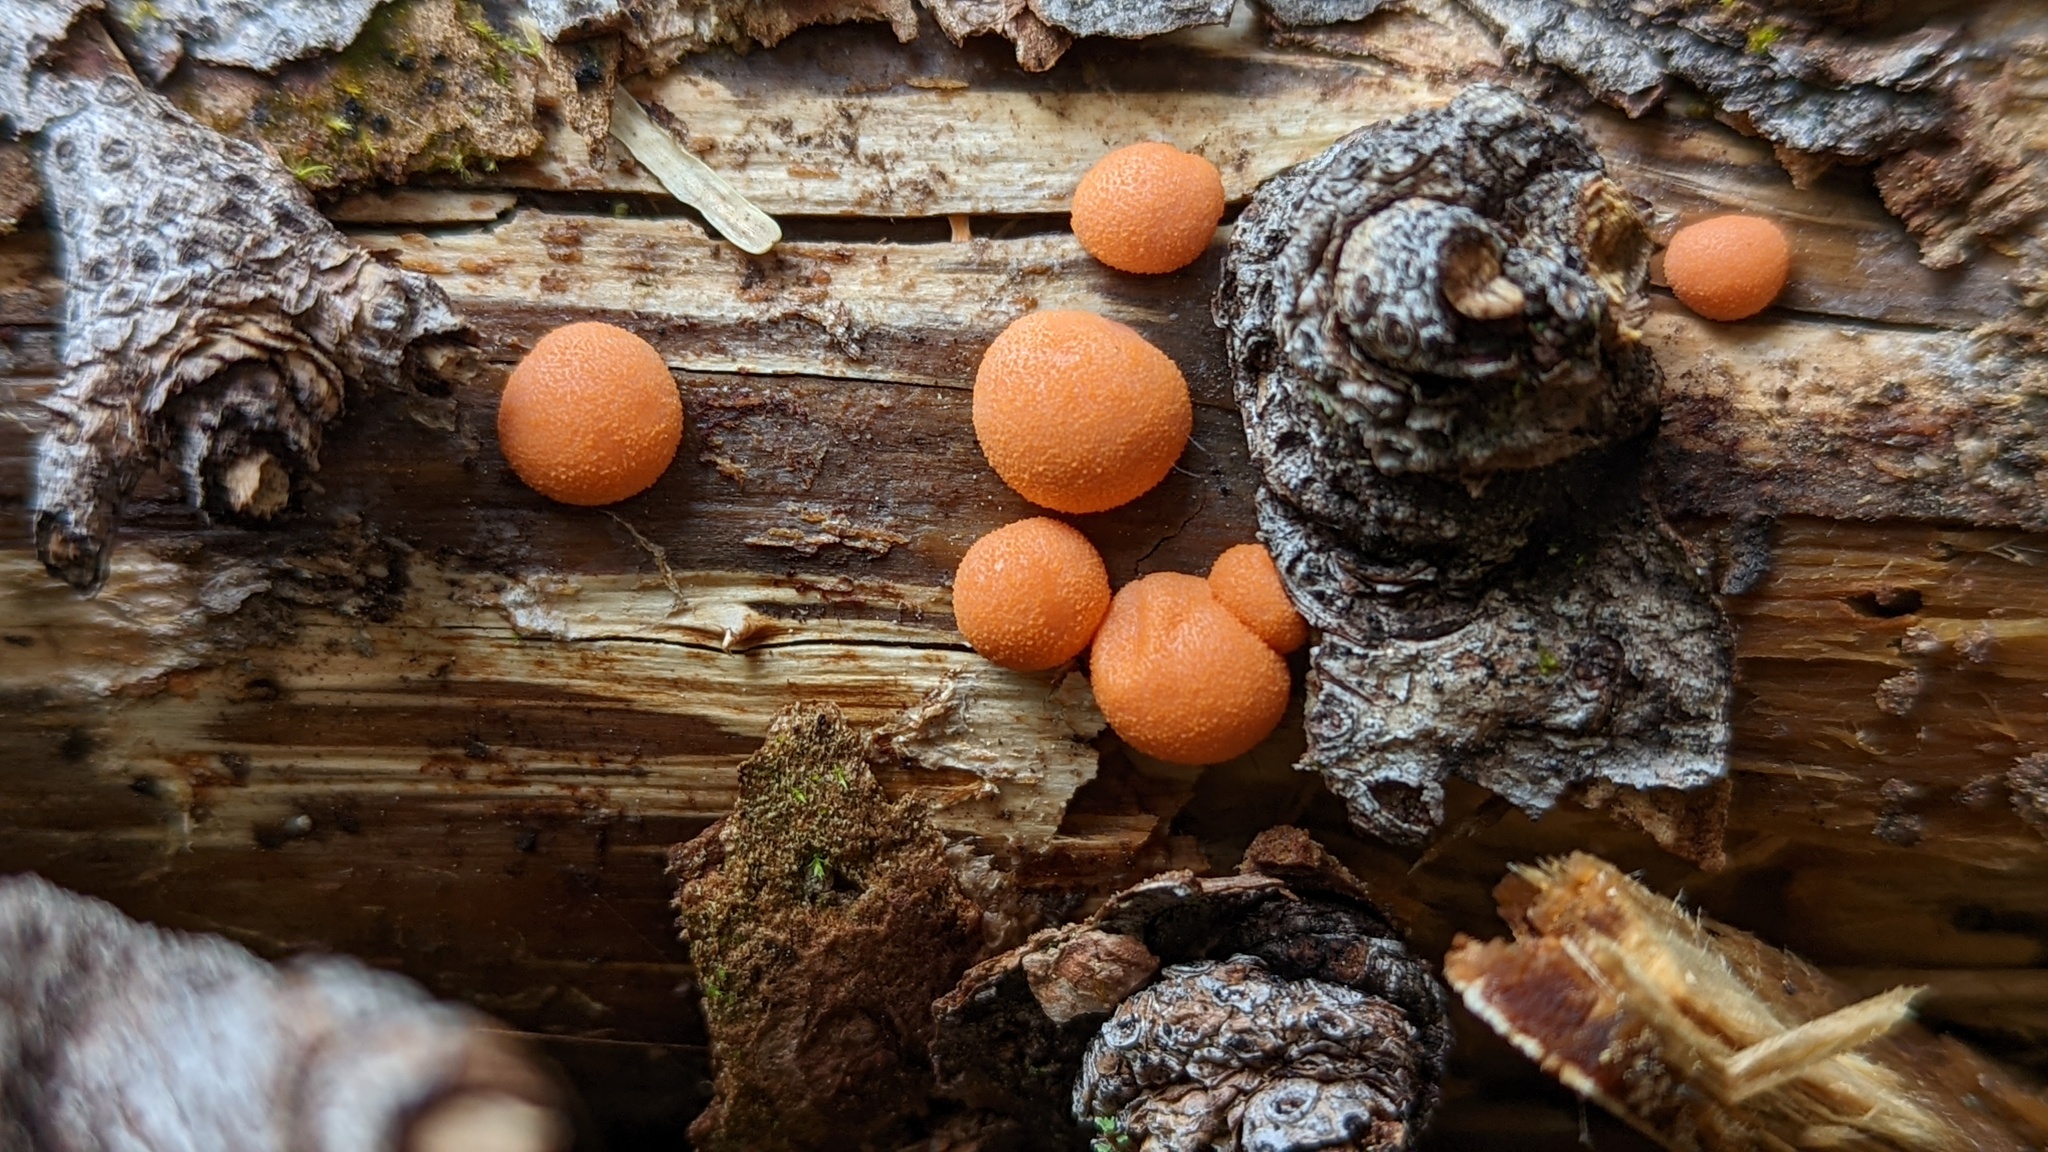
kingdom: Protozoa
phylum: Mycetozoa
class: Myxomycetes
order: Cribrariales
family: Tubiferaceae
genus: Lycogala
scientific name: Lycogala epidendrum
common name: Wolf's milk
